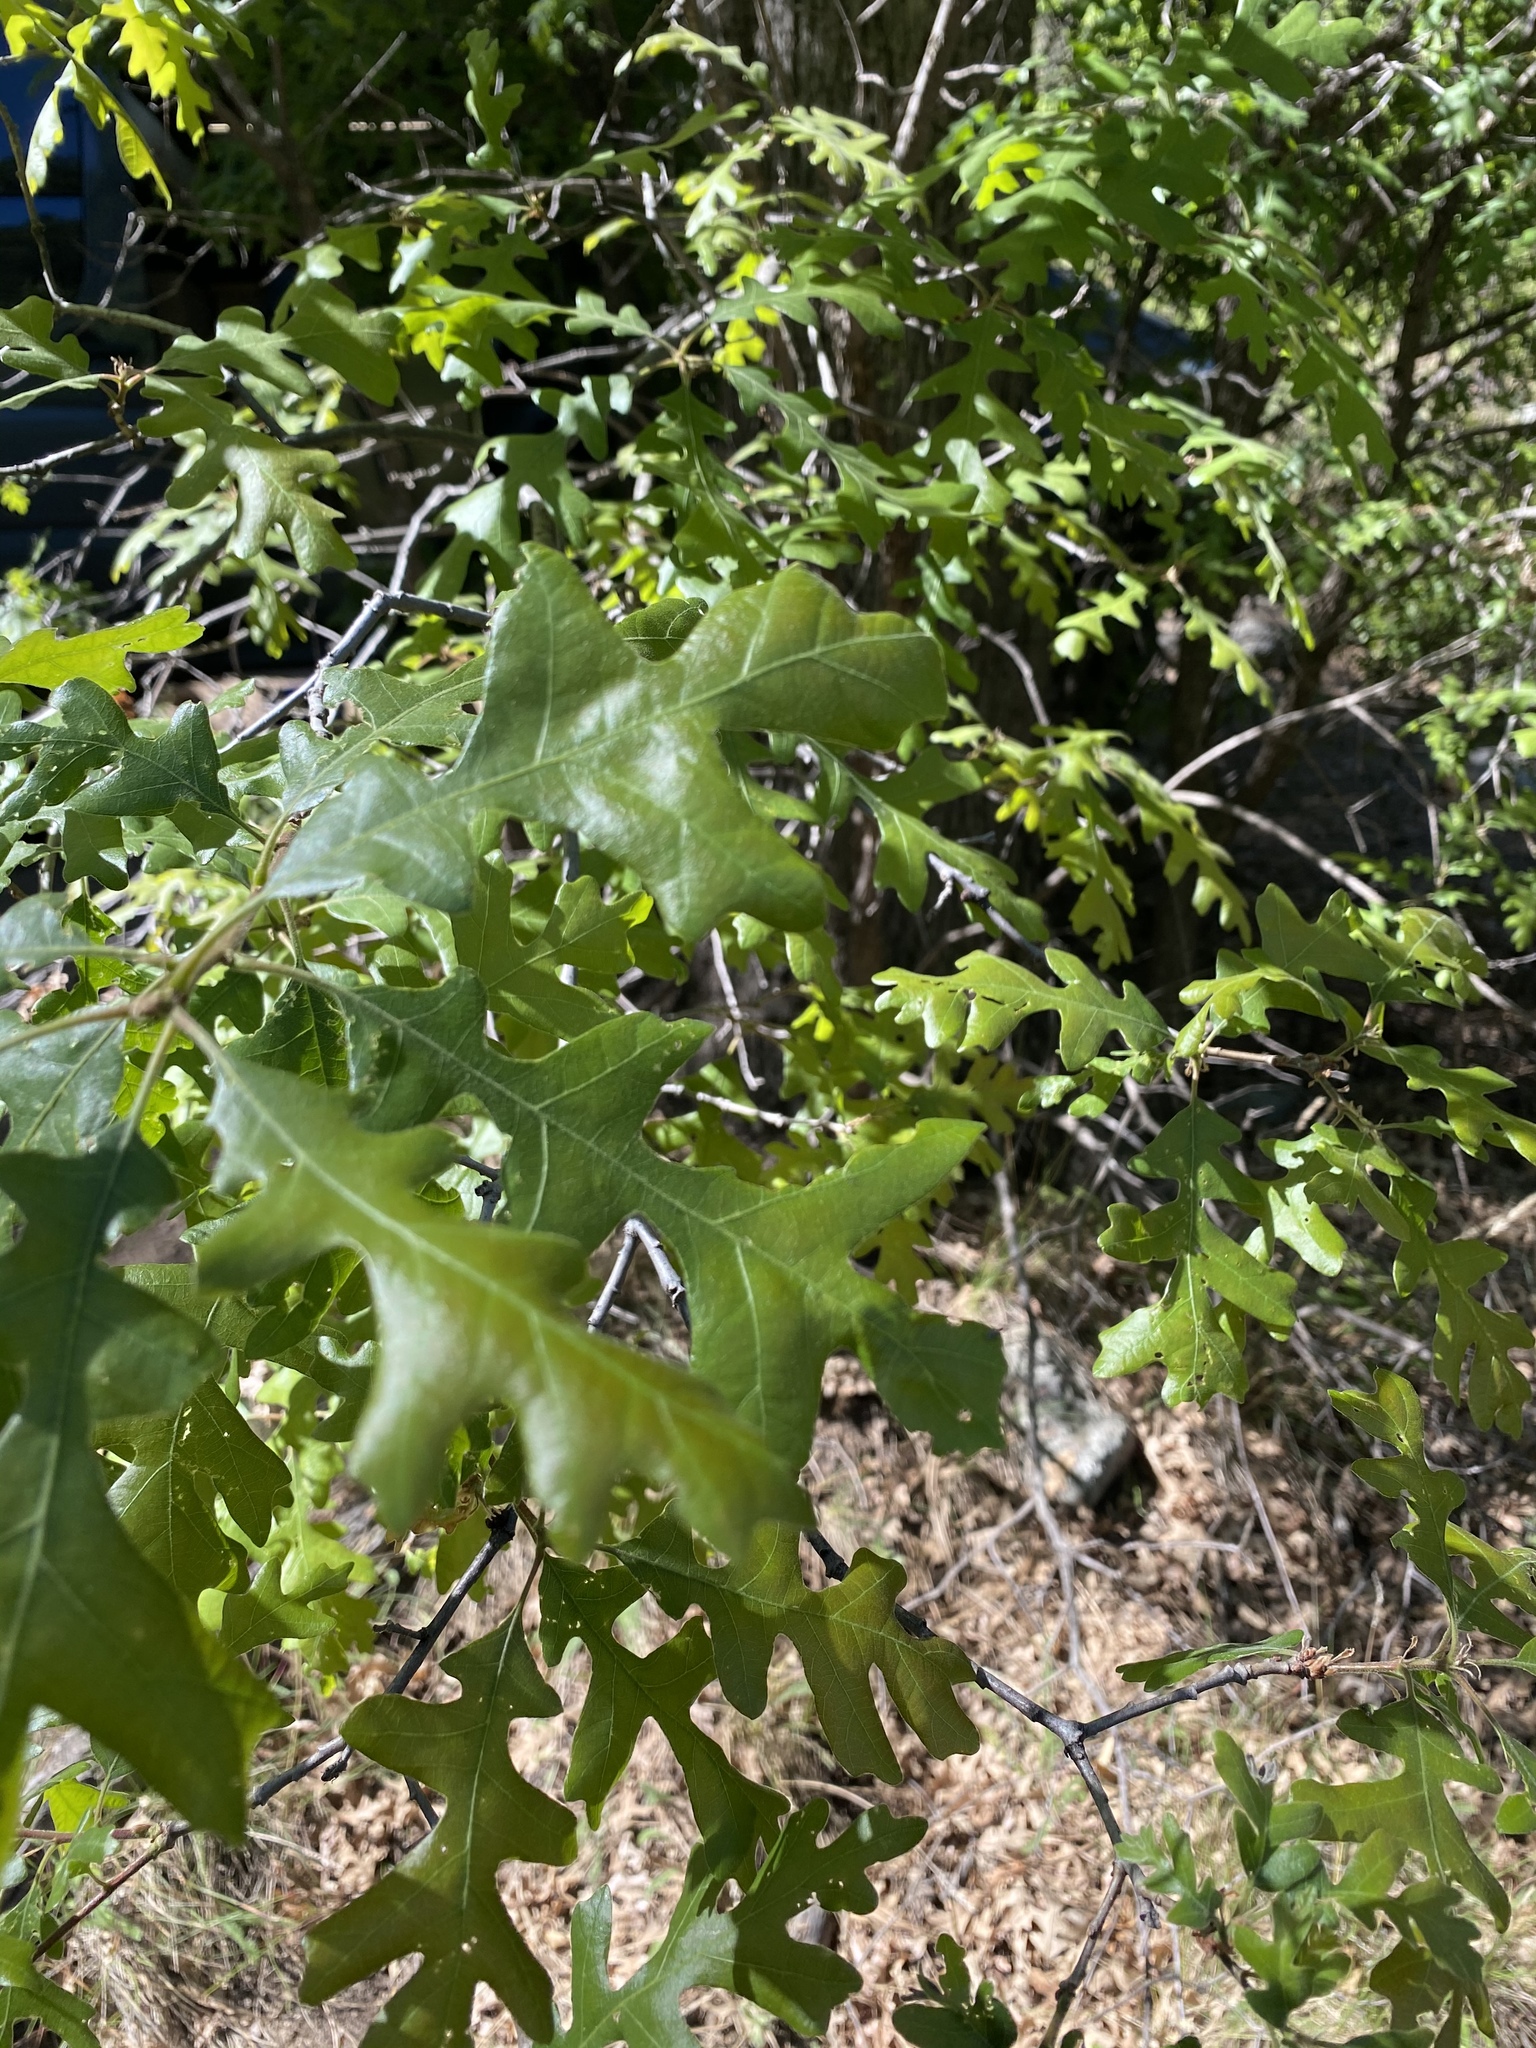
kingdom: Plantae
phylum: Tracheophyta
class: Magnoliopsida
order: Fagales
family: Fagaceae
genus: Quercus
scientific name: Quercus gambelii
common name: Gambel oak
